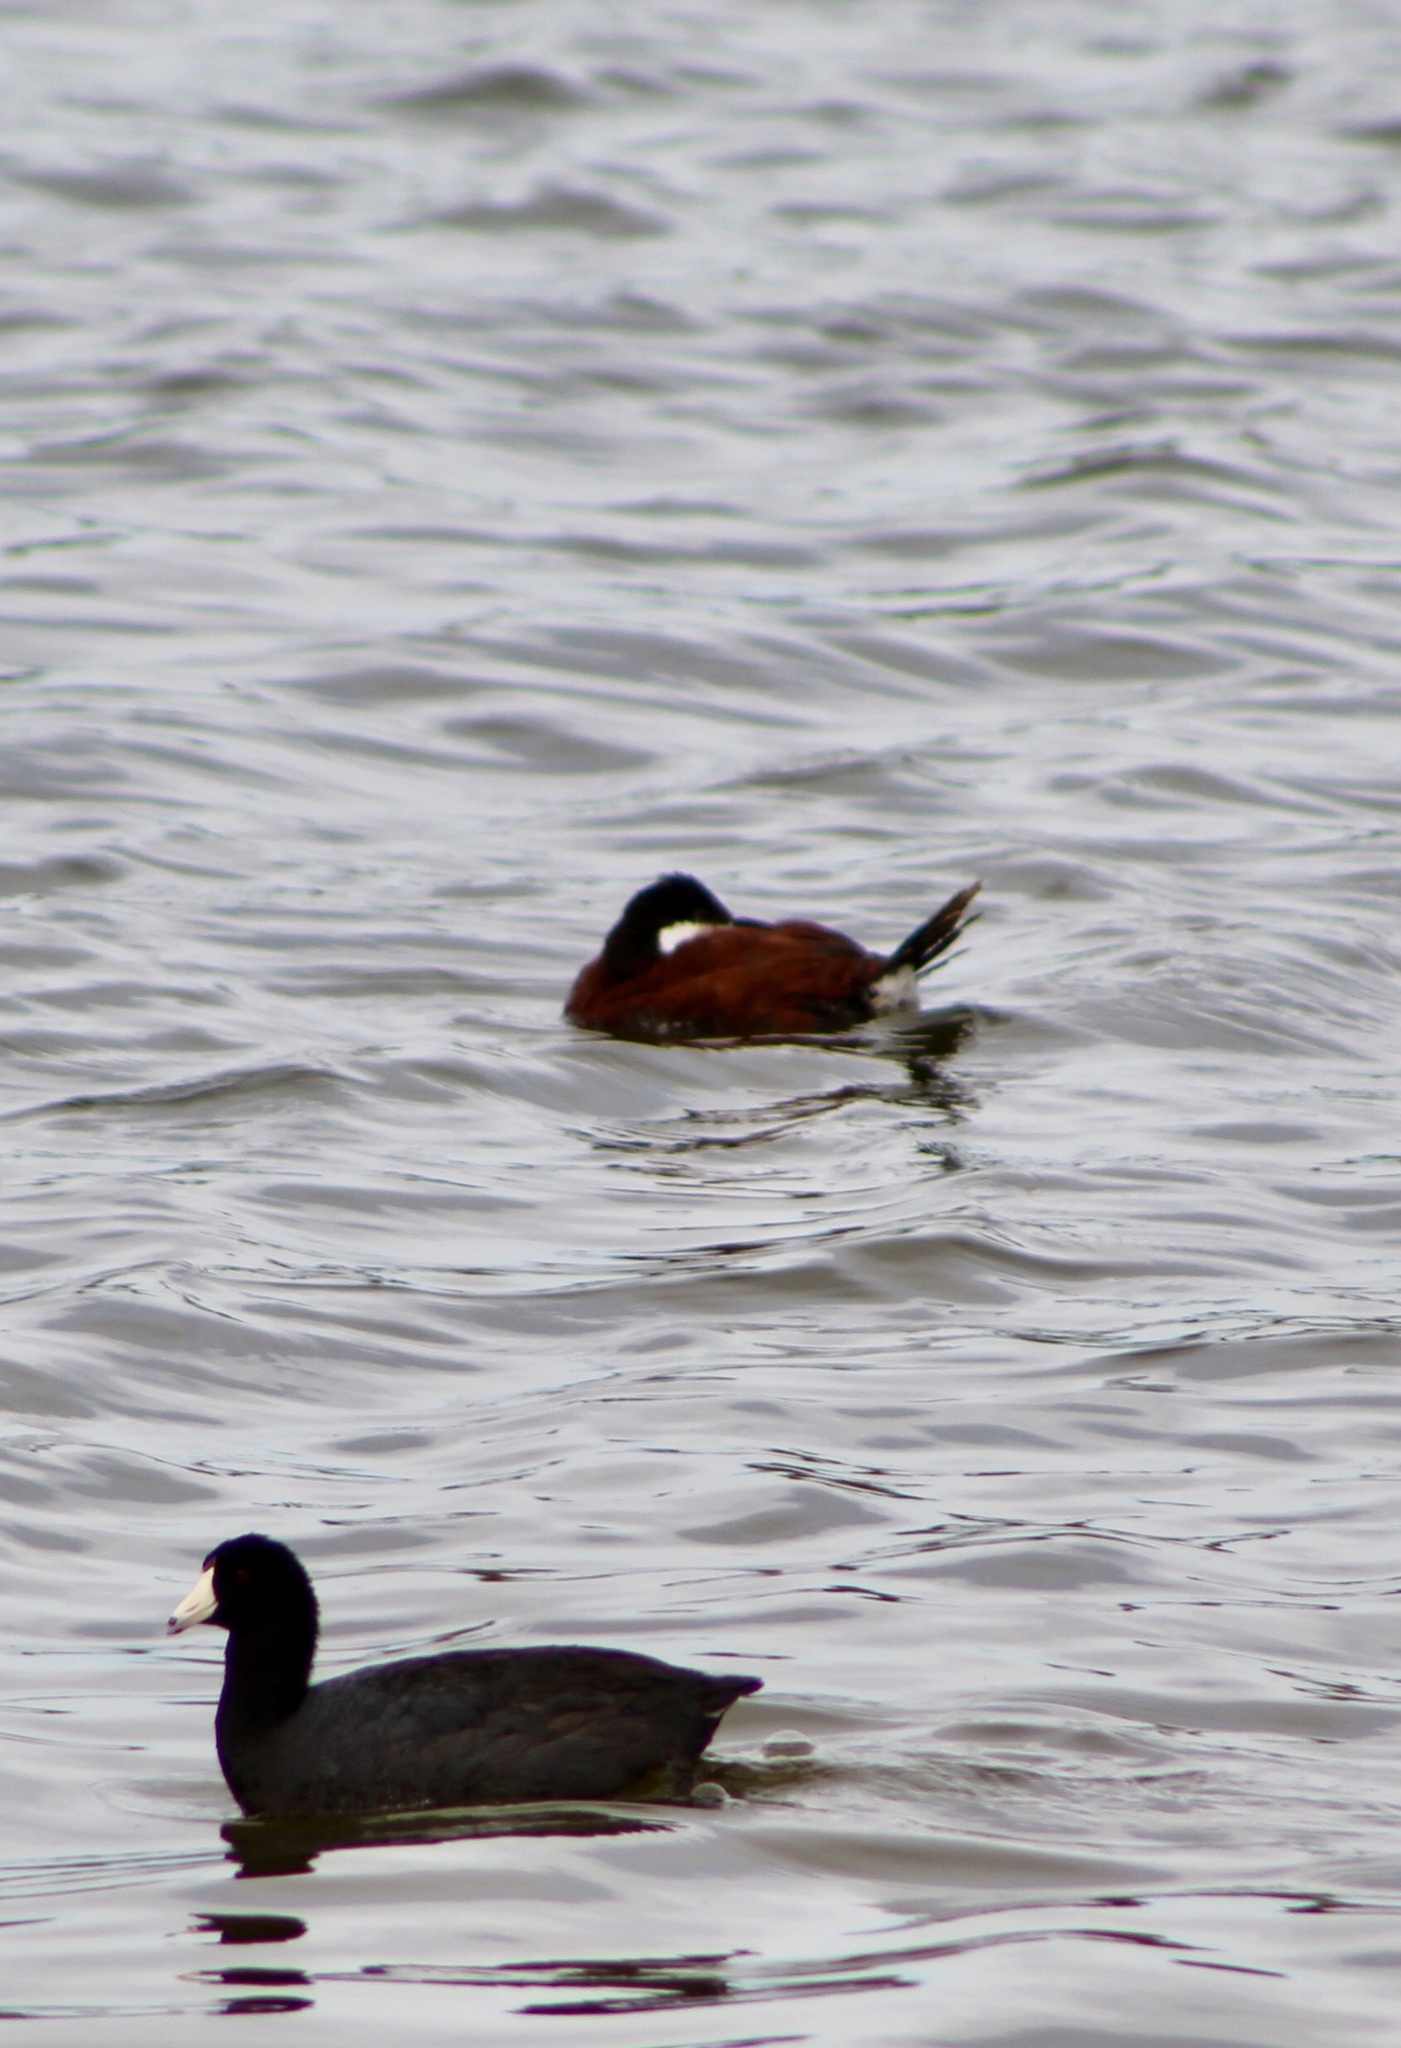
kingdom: Animalia
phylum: Chordata
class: Aves
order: Gruiformes
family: Rallidae
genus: Fulica
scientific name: Fulica americana
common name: American coot
